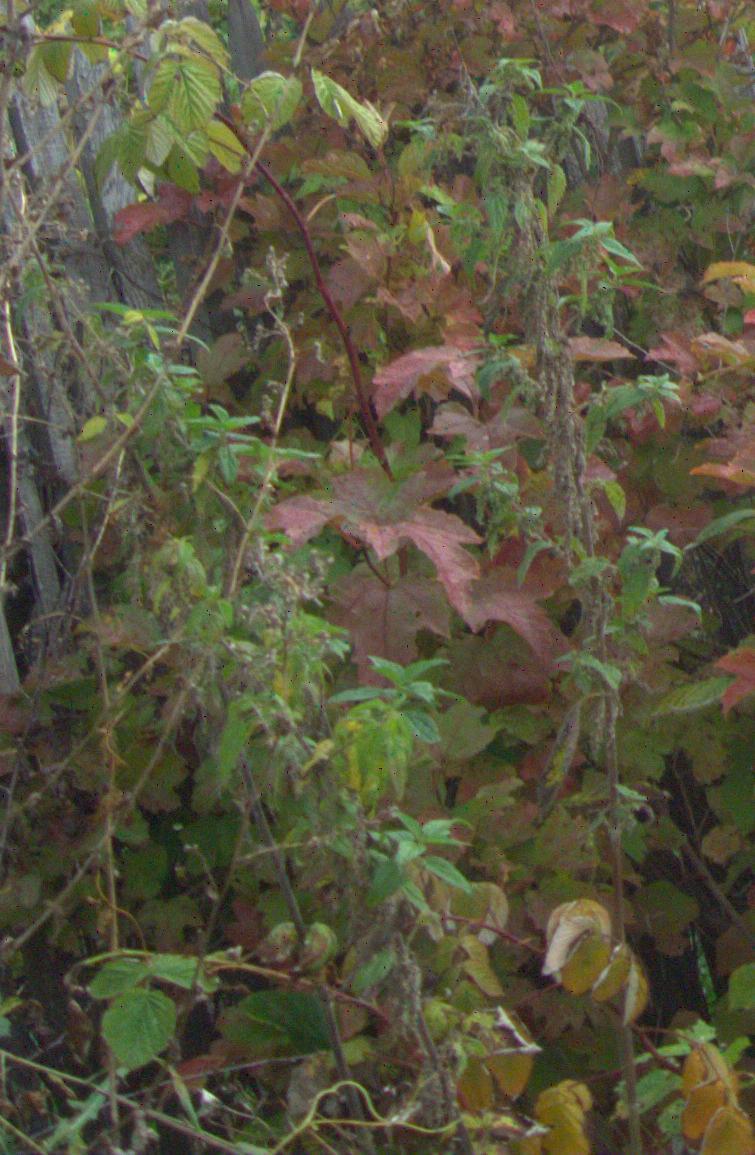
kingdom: Plantae
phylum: Tracheophyta
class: Magnoliopsida
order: Rosales
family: Urticaceae
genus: Urtica
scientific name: Urtica dioica
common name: Common nettle
